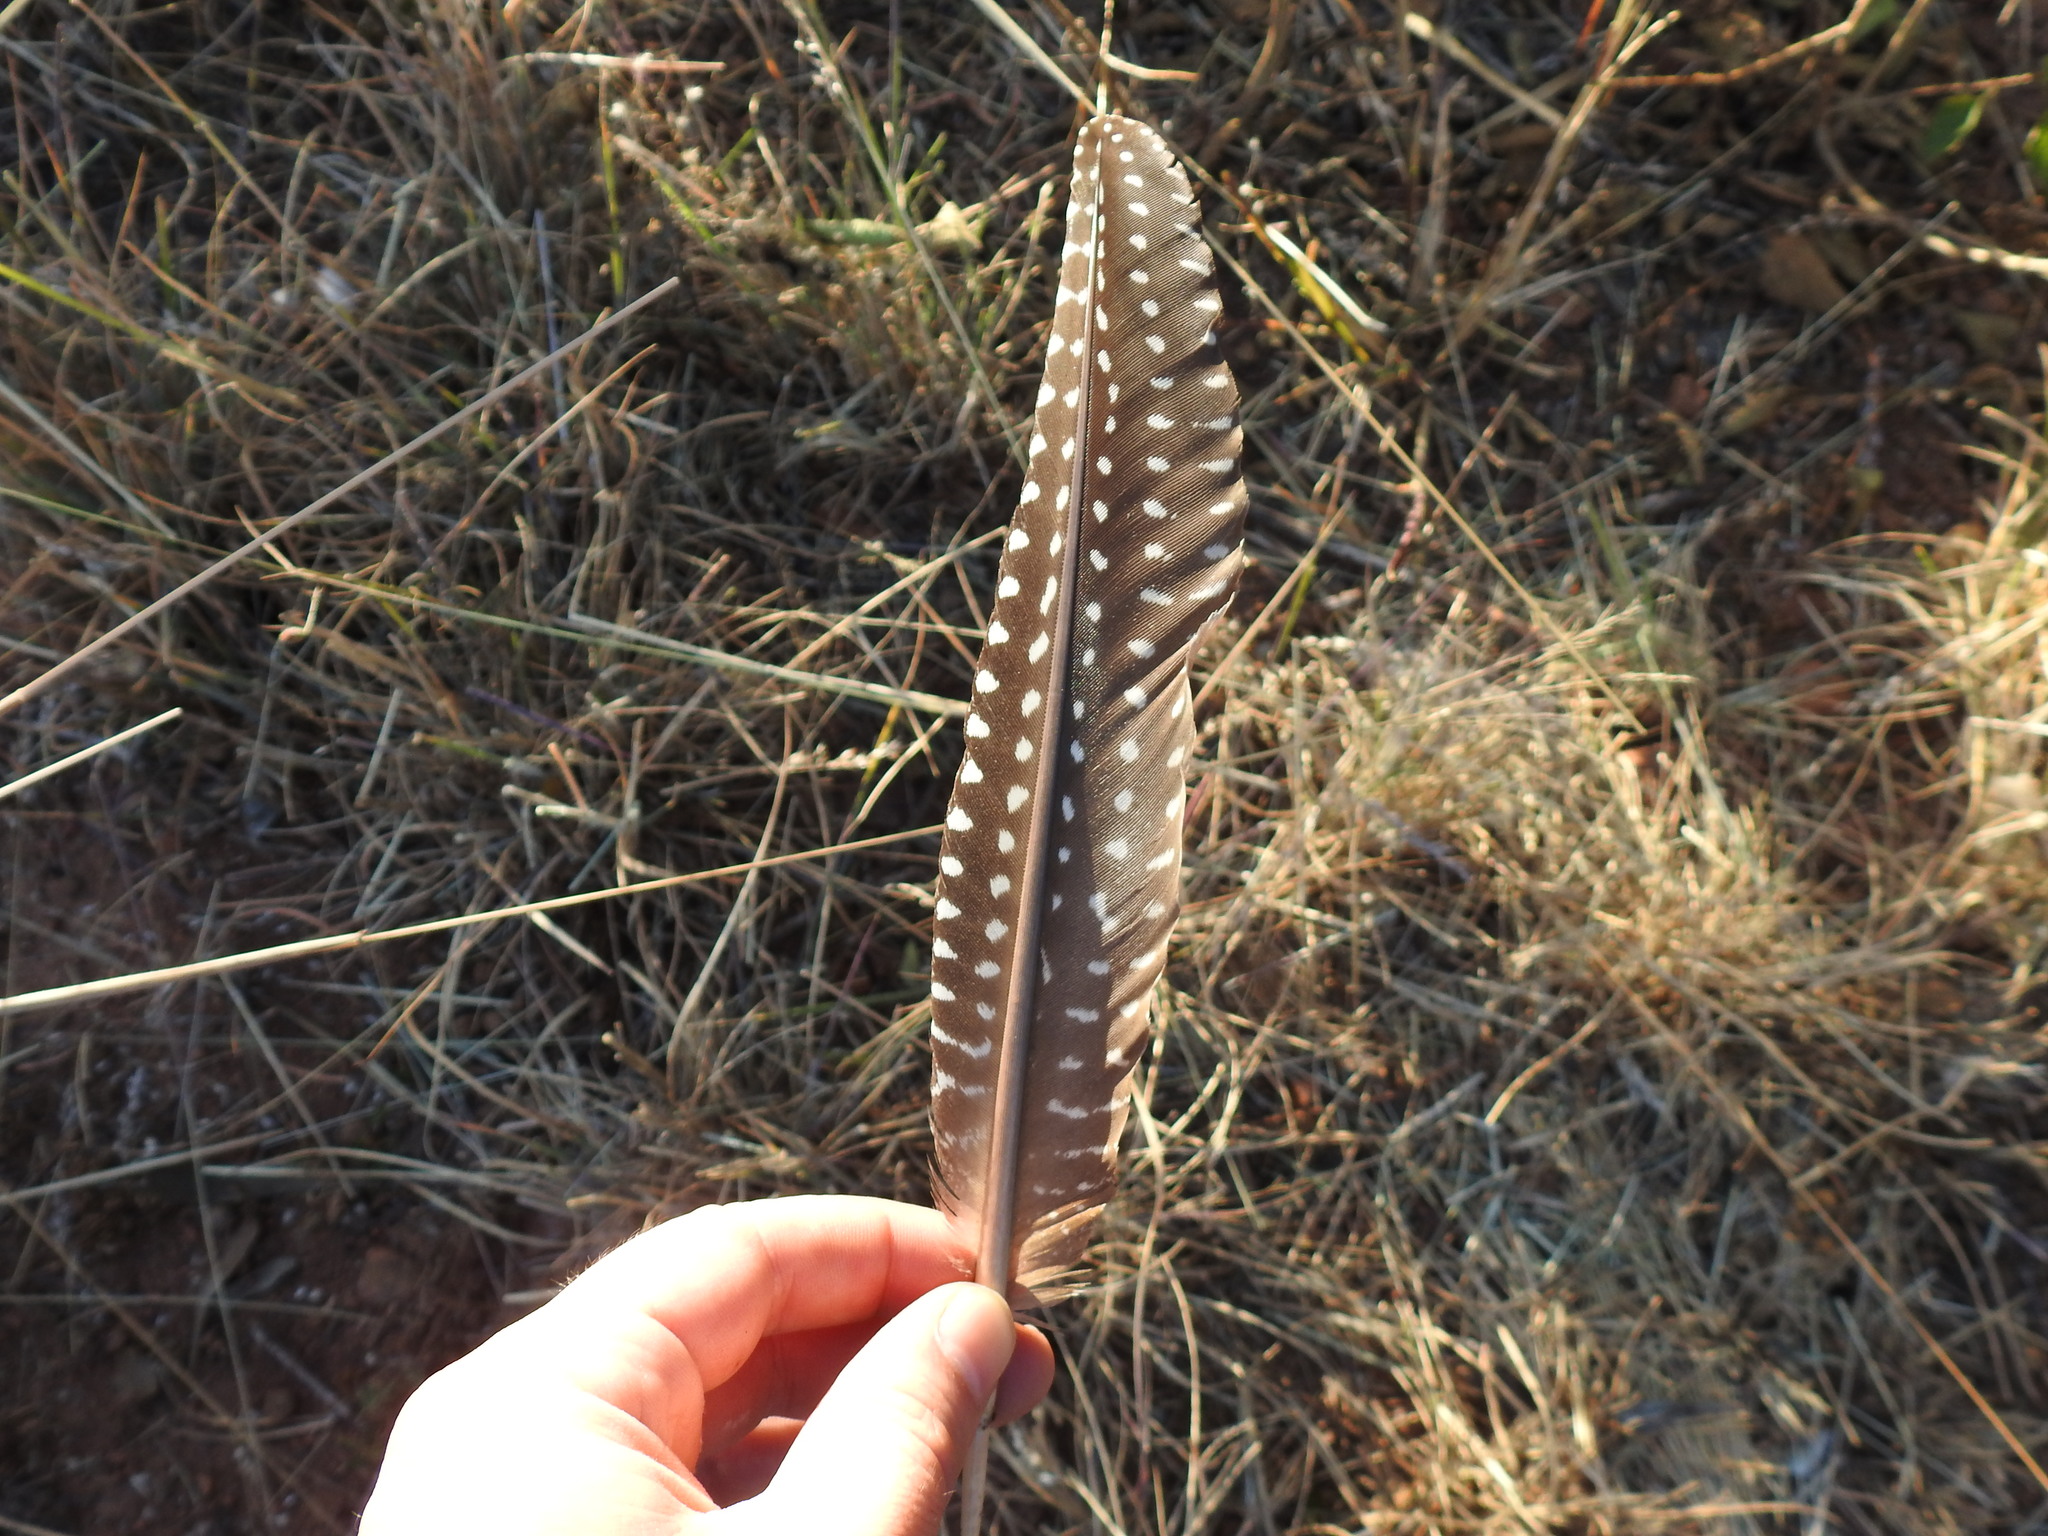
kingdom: Animalia
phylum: Chordata
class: Aves
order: Galliformes
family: Numididae
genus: Numida
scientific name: Numida meleagris
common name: Helmeted guineafowl
